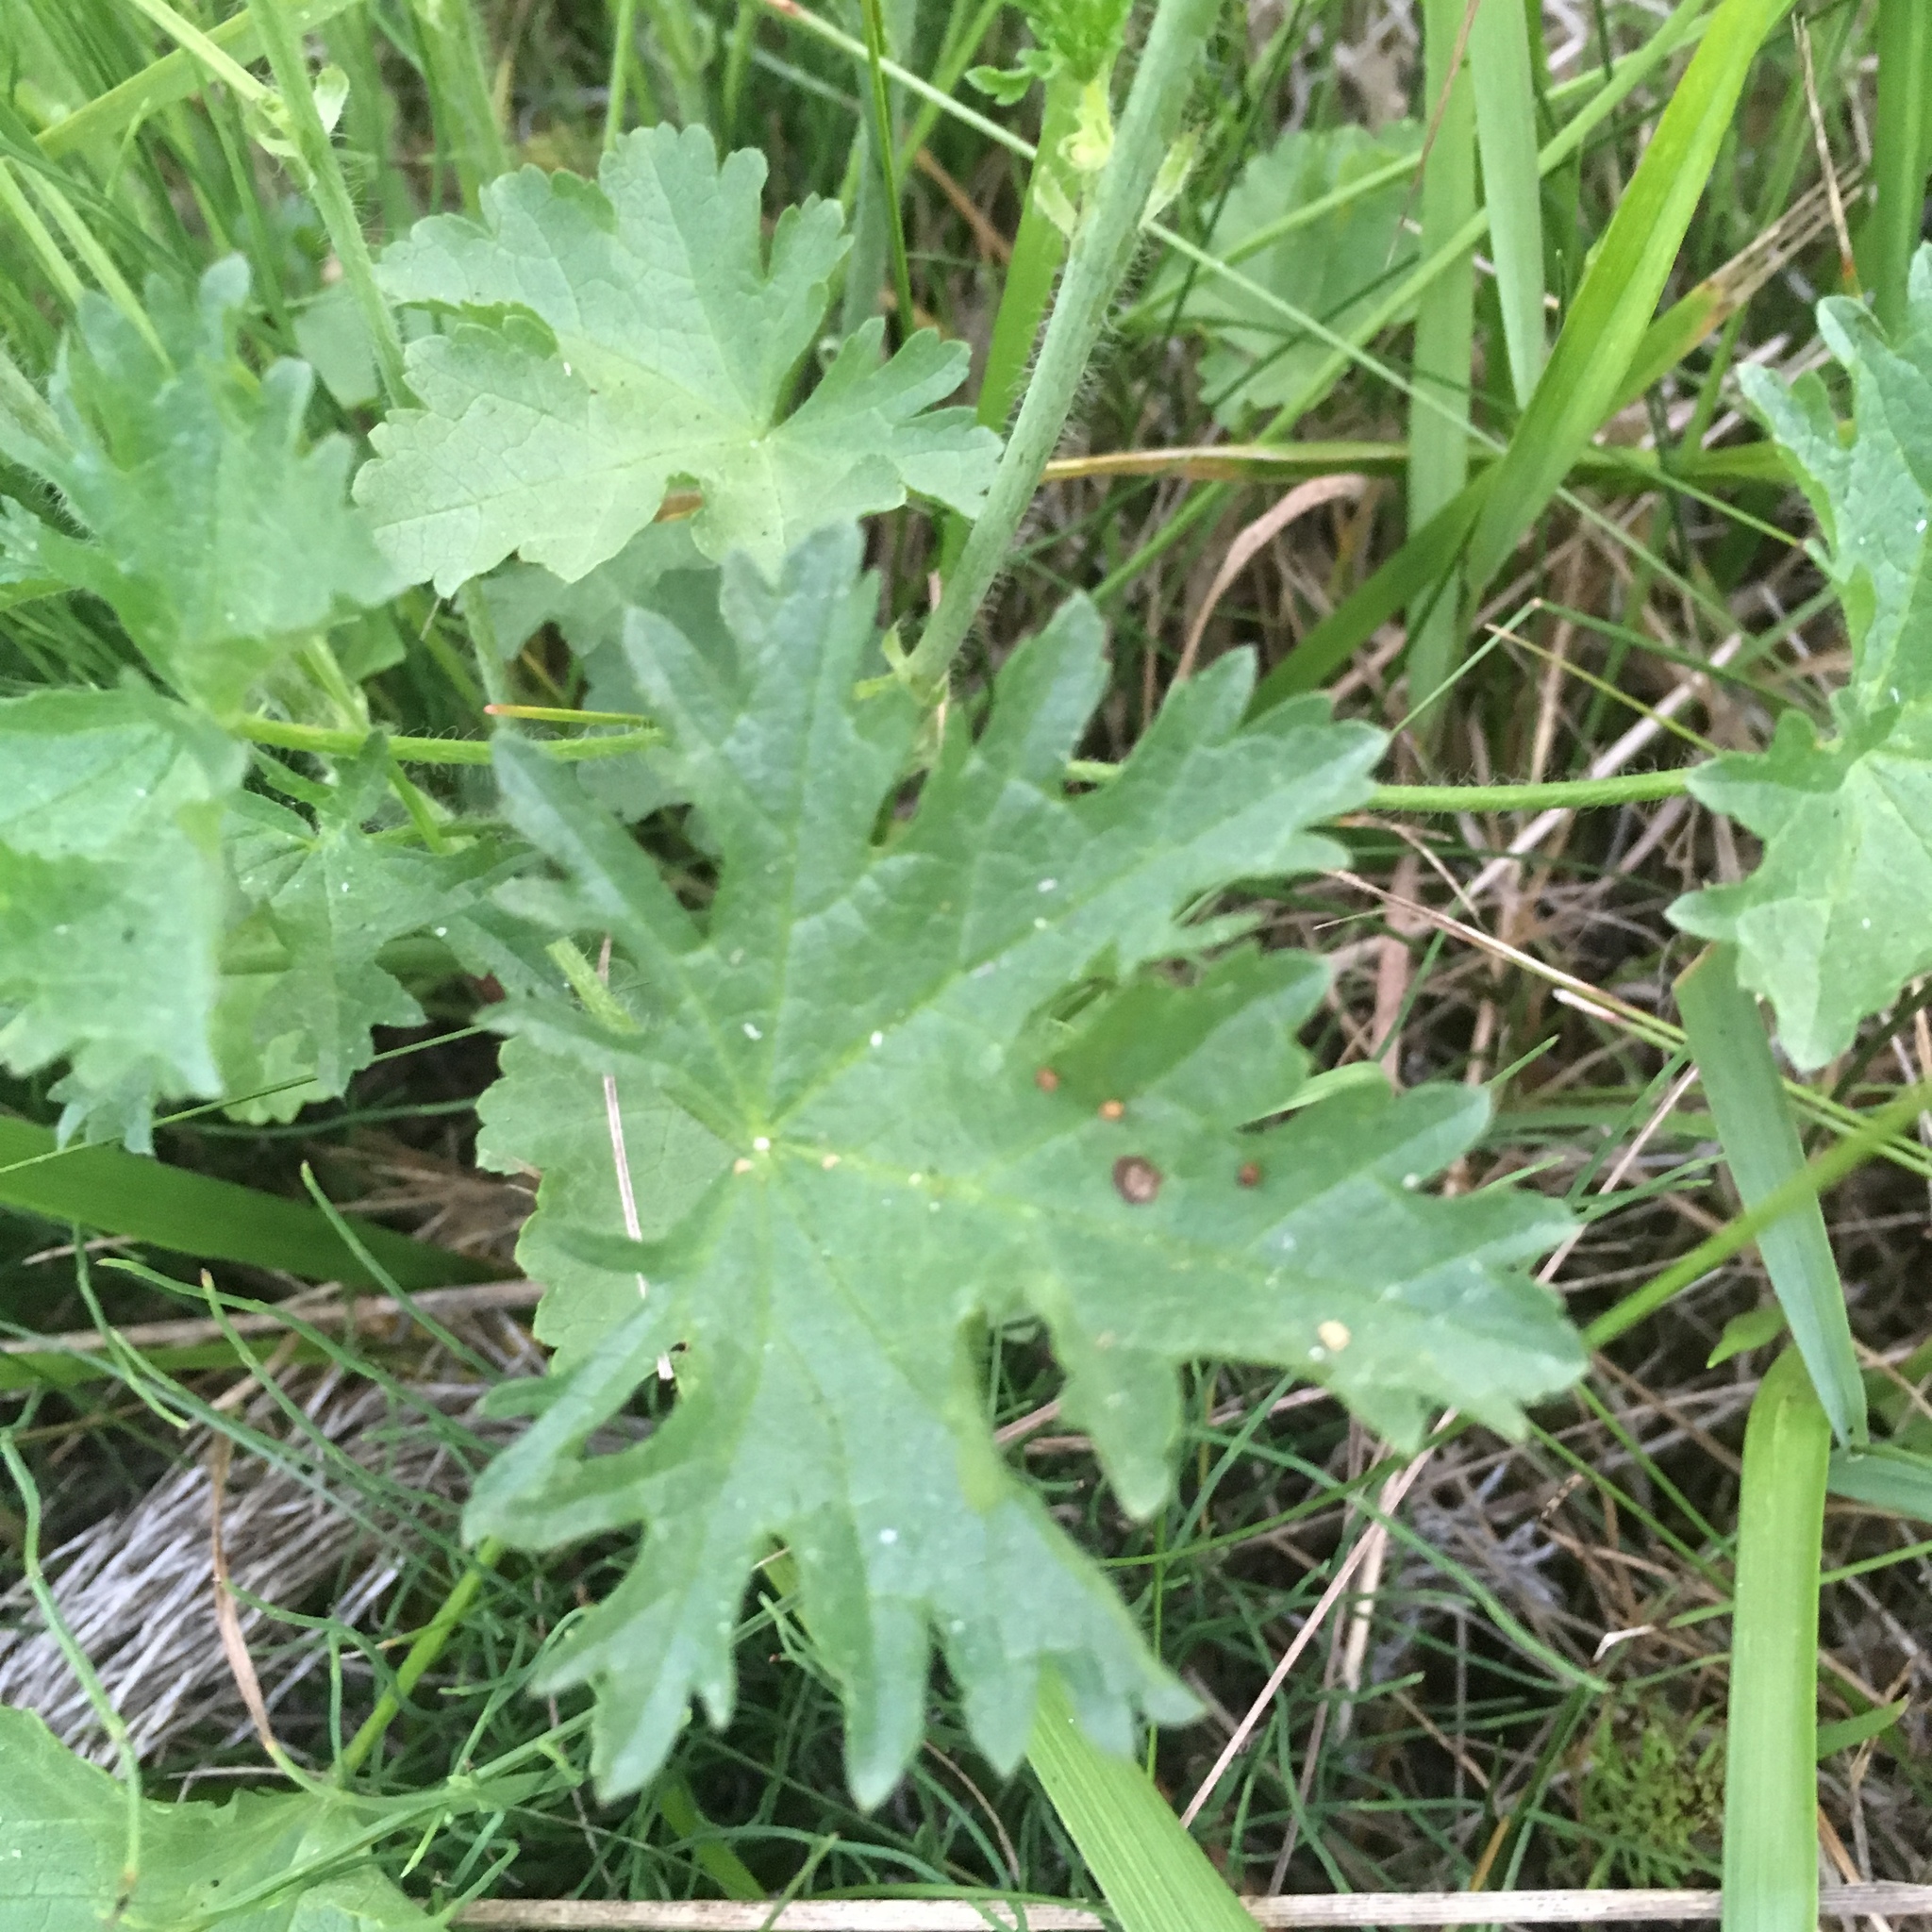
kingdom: Plantae
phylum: Tracheophyta
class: Magnoliopsida
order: Malvales
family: Malvaceae
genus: Malva
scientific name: Malva moschata
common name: Musk mallow
